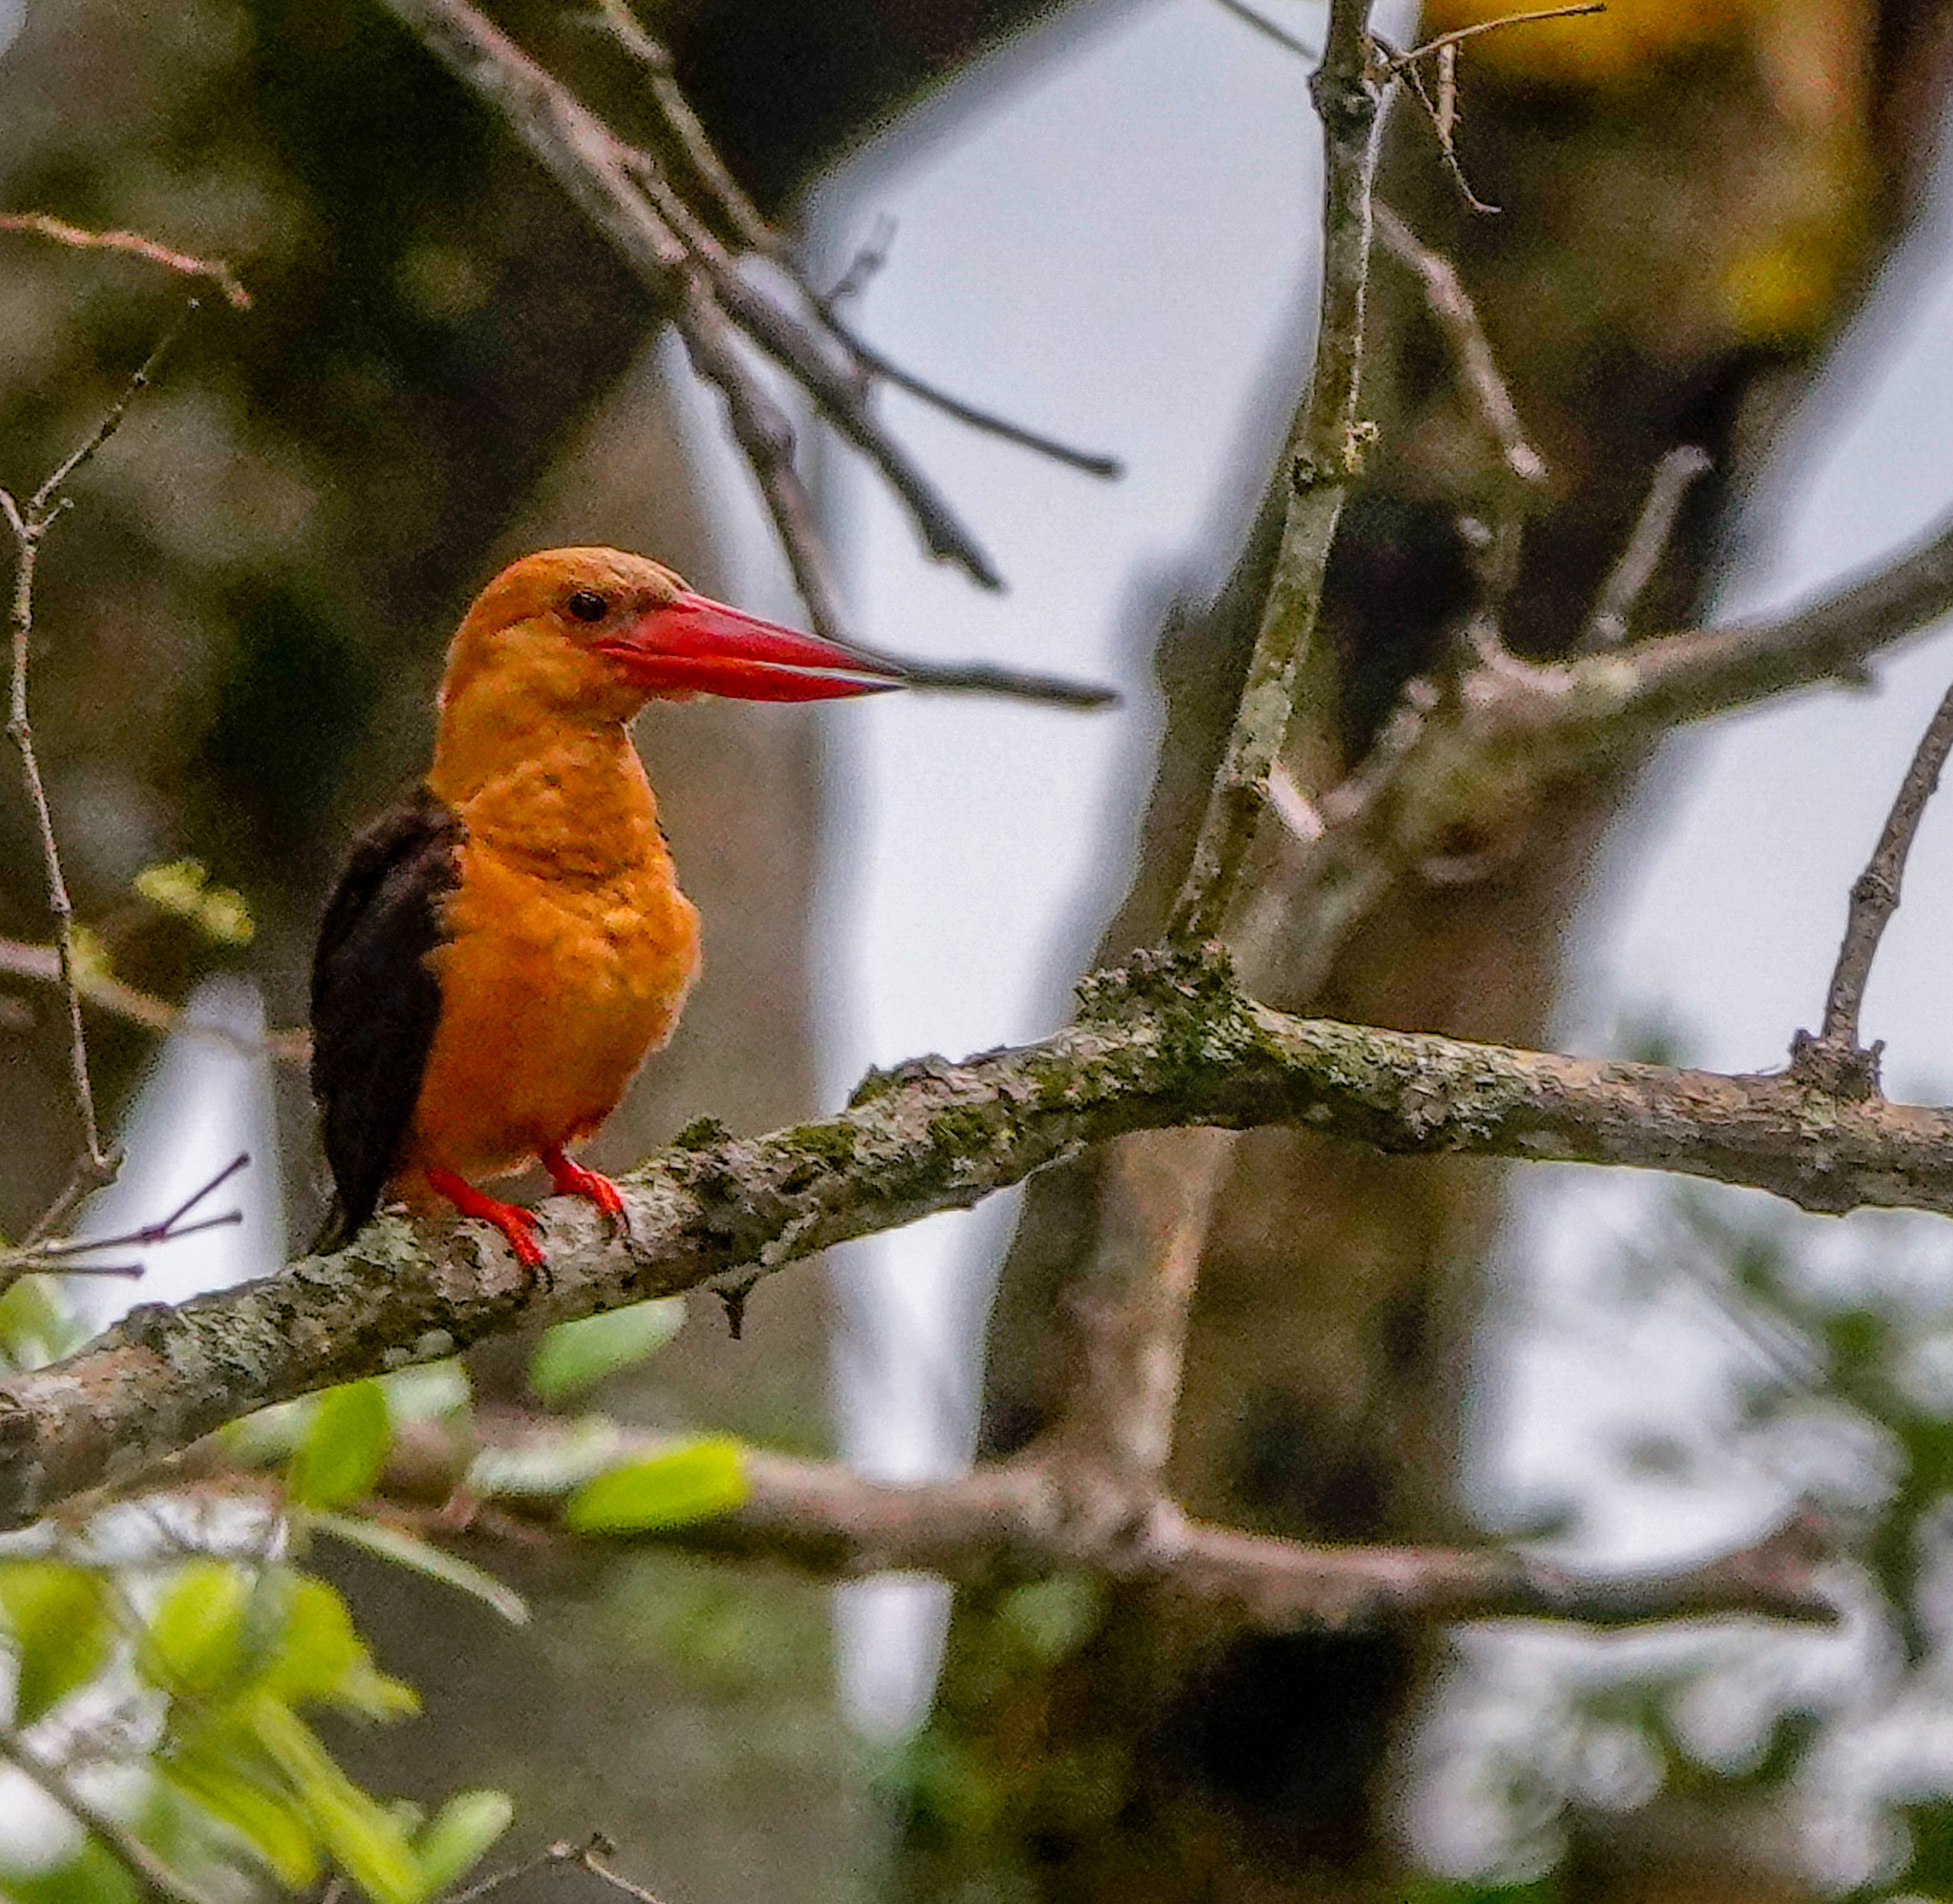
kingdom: Animalia
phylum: Chordata
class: Aves
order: Coraciiformes
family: Alcedinidae
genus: Pelargopsis
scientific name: Pelargopsis amauroptera
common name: Brown-winged kingfisher
